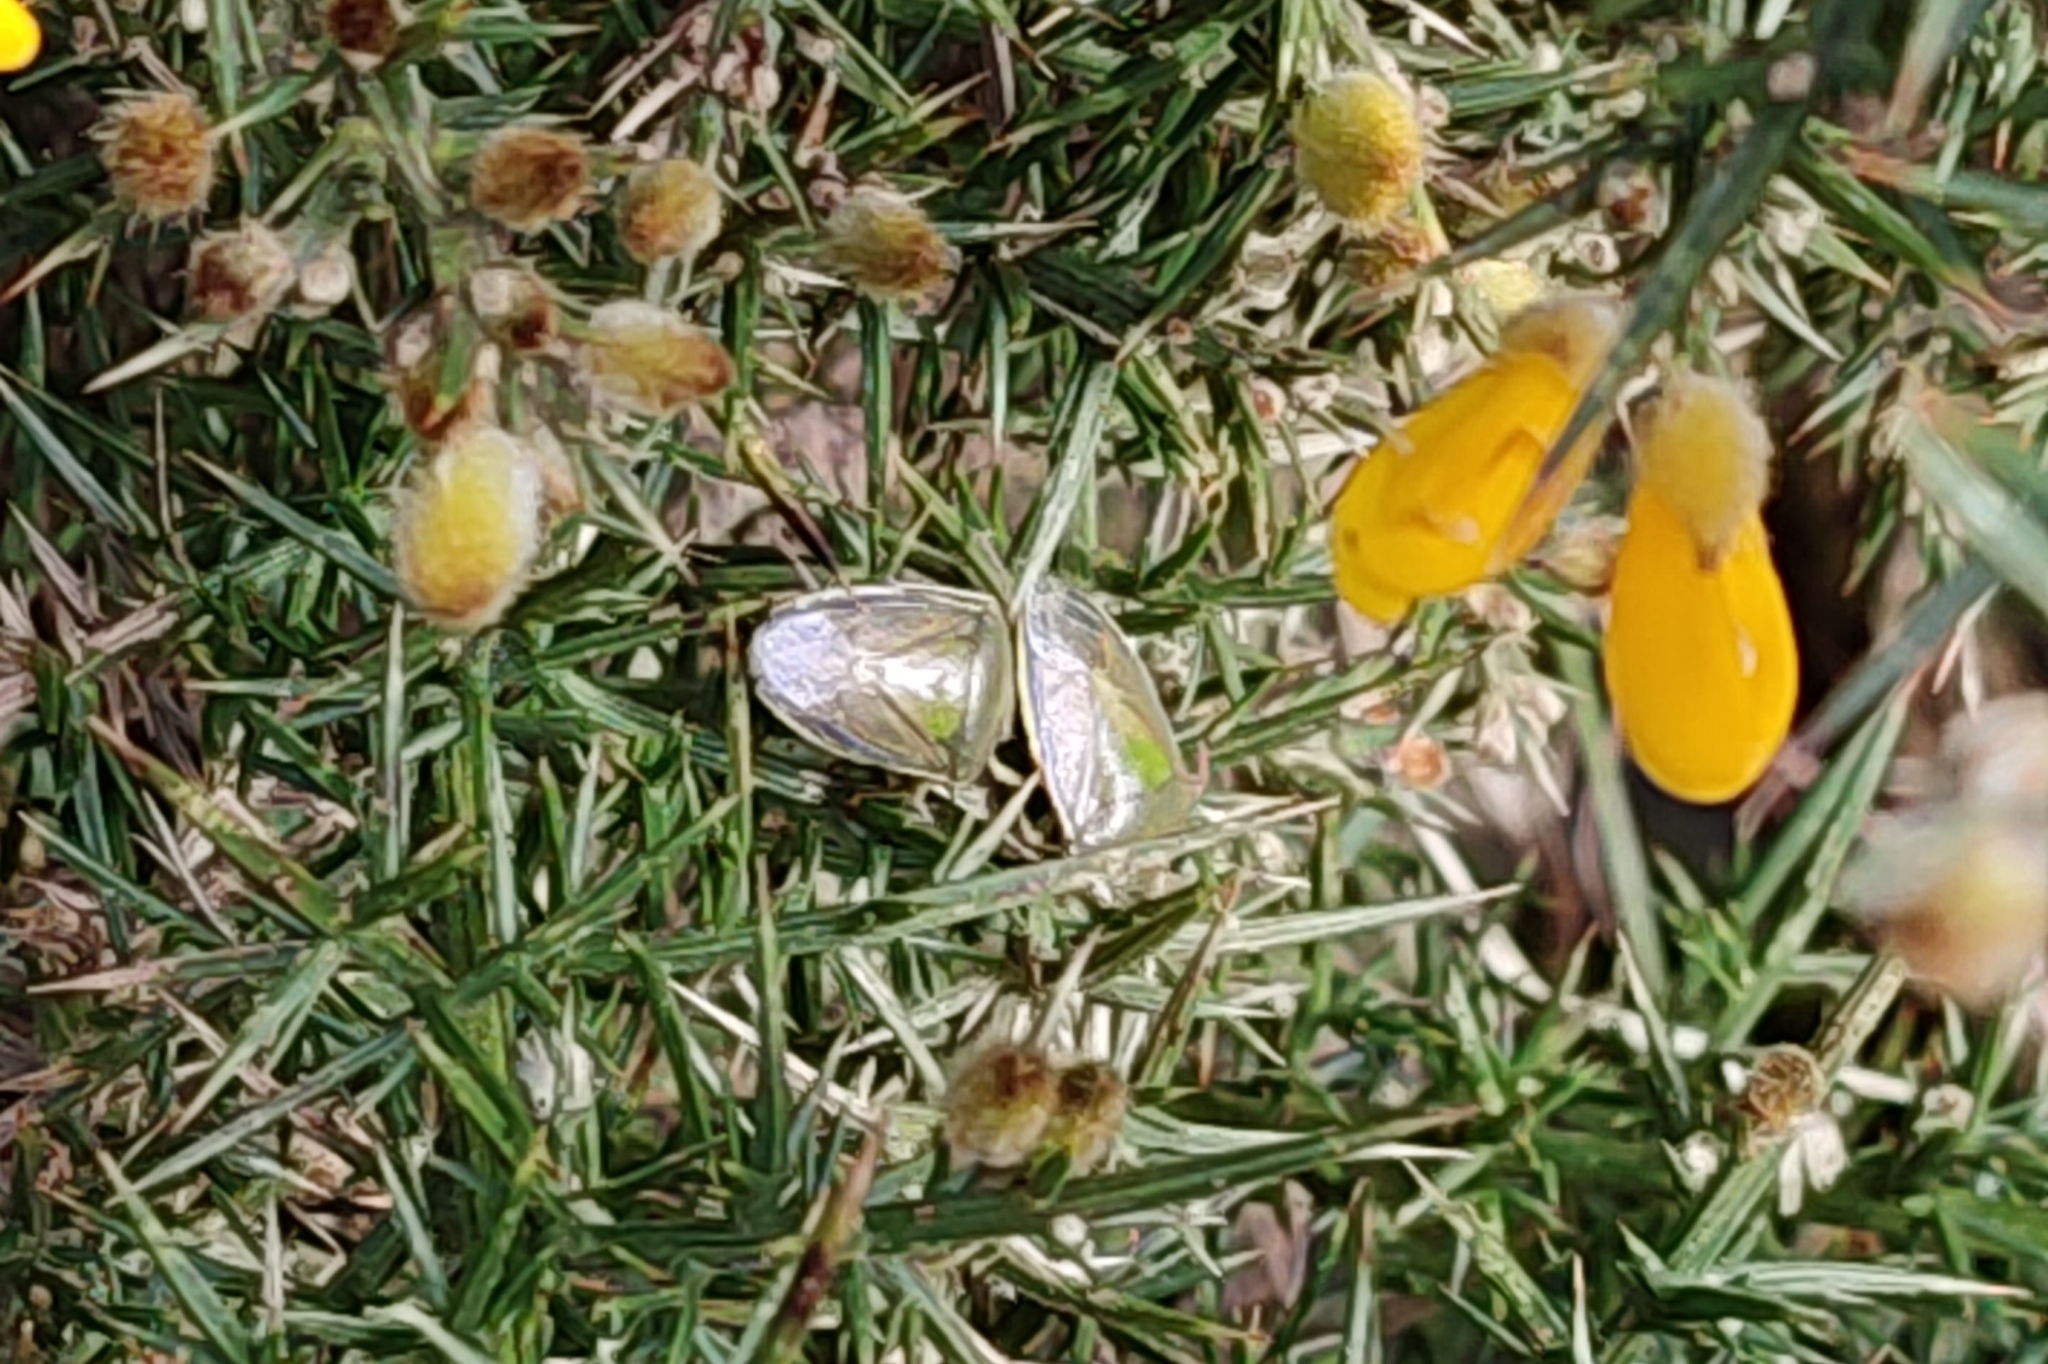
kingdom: Animalia
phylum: Arthropoda
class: Insecta
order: Hemiptera
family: Pentatomidae
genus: Piezodorus
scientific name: Piezodorus lituratus
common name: Stink bug
